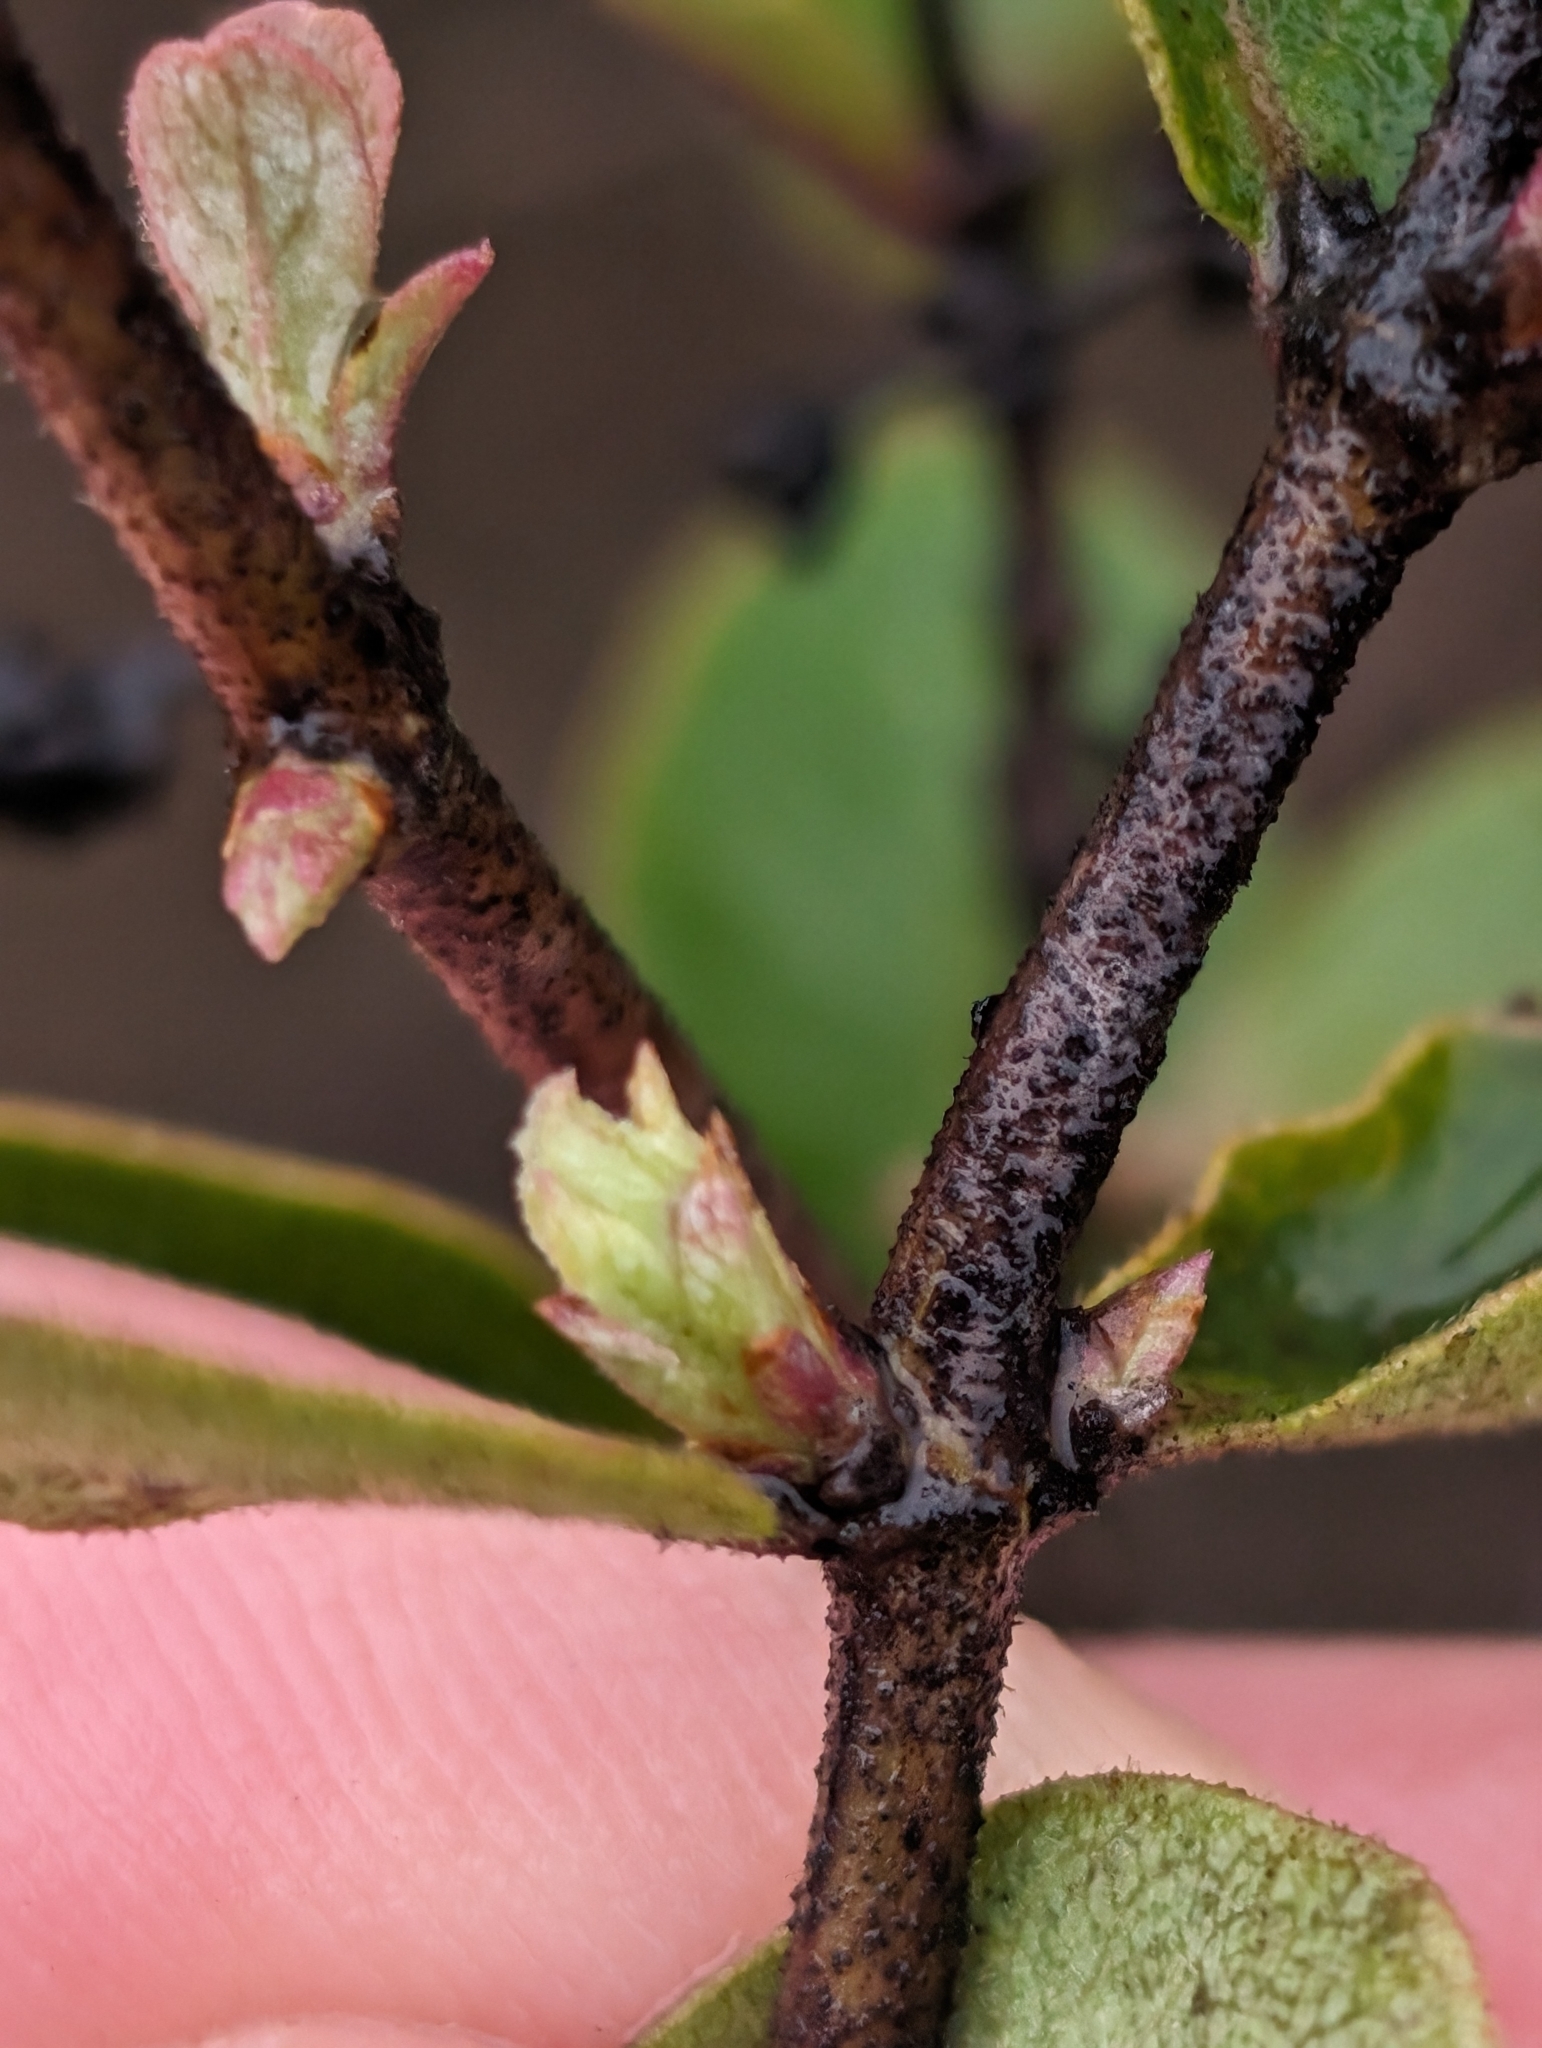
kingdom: Plantae
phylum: Tracheophyta
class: Magnoliopsida
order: Dipsacales
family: Caprifoliaceae
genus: Lonicera
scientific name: Lonicera subspicata
